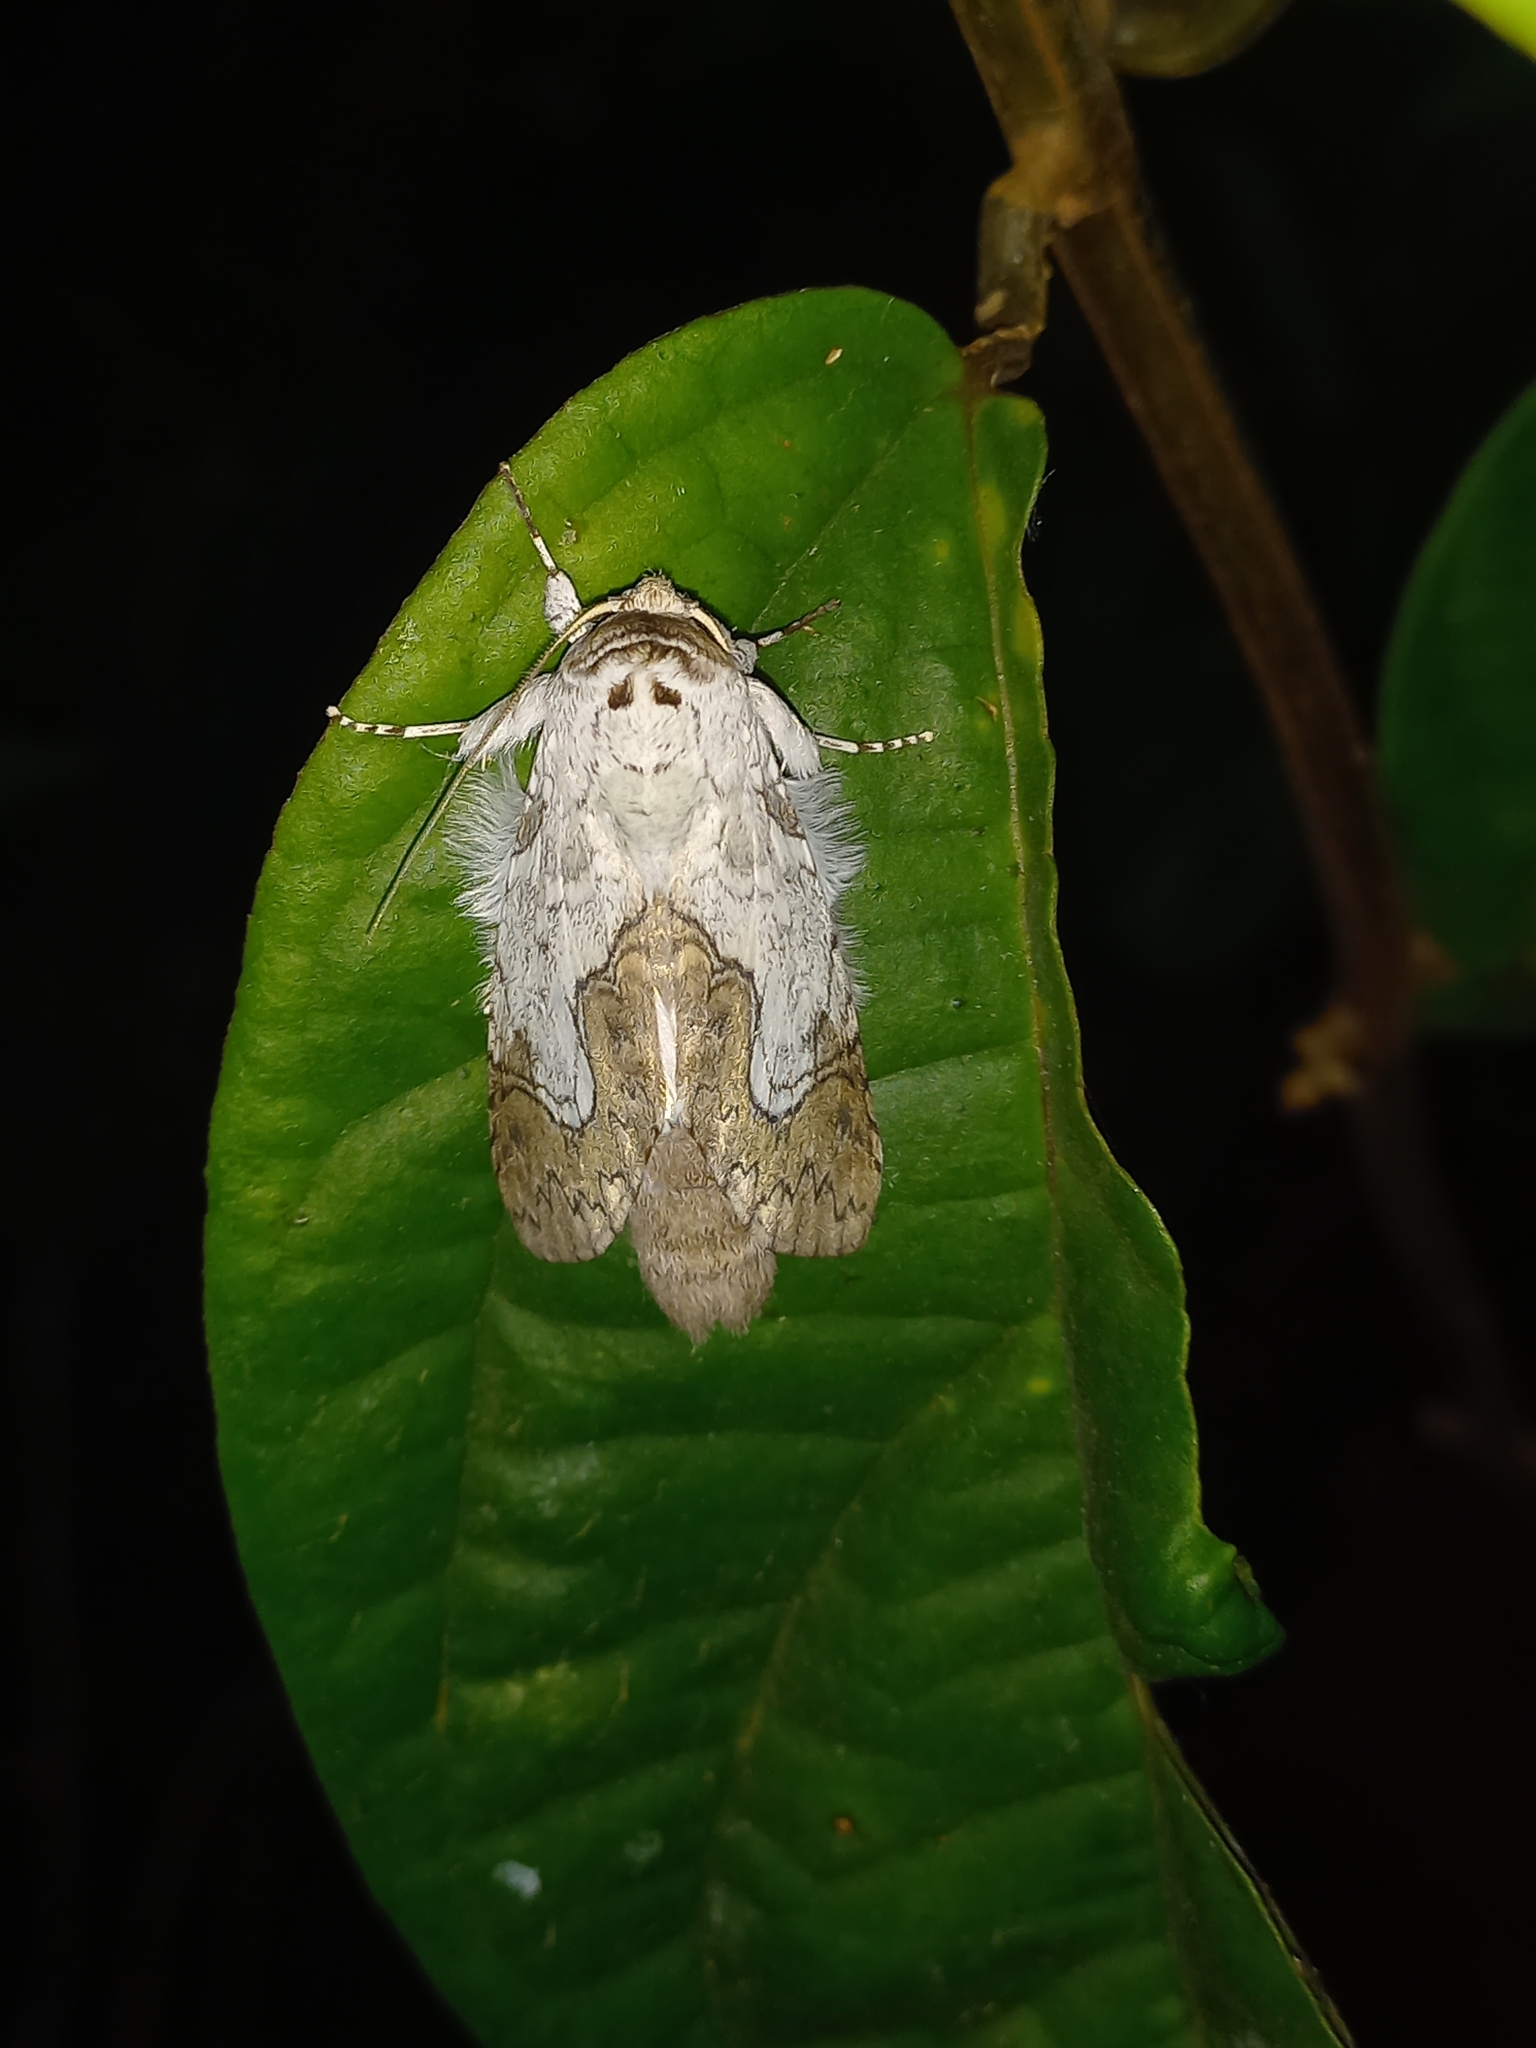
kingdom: Animalia
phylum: Arthropoda
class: Insecta
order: Lepidoptera
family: Notodontidae
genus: Ginaldia
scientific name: Ginaldia
